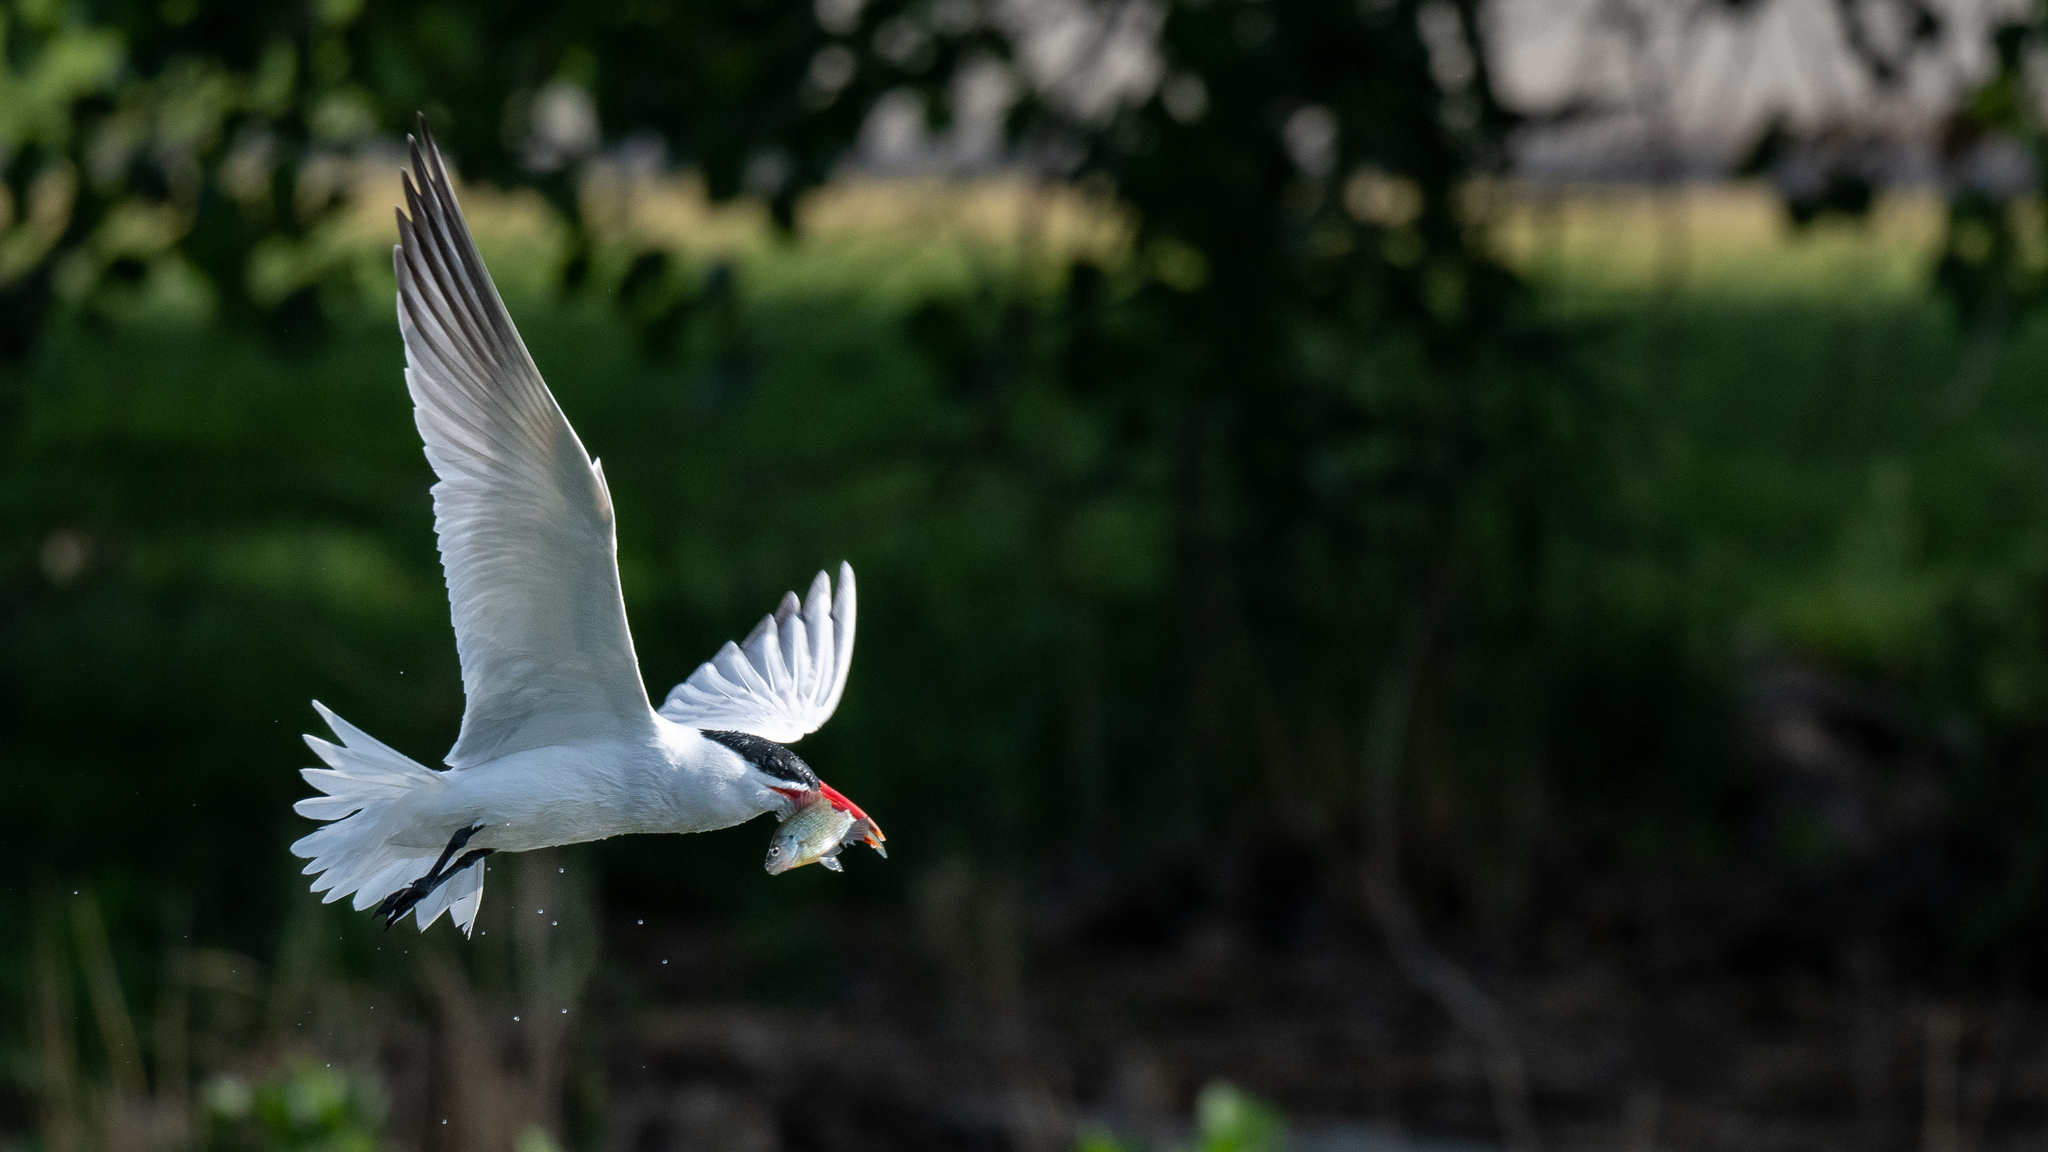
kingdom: Animalia
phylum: Chordata
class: Aves
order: Charadriiformes
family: Laridae
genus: Hydroprogne
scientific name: Hydroprogne caspia
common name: Caspian tern
